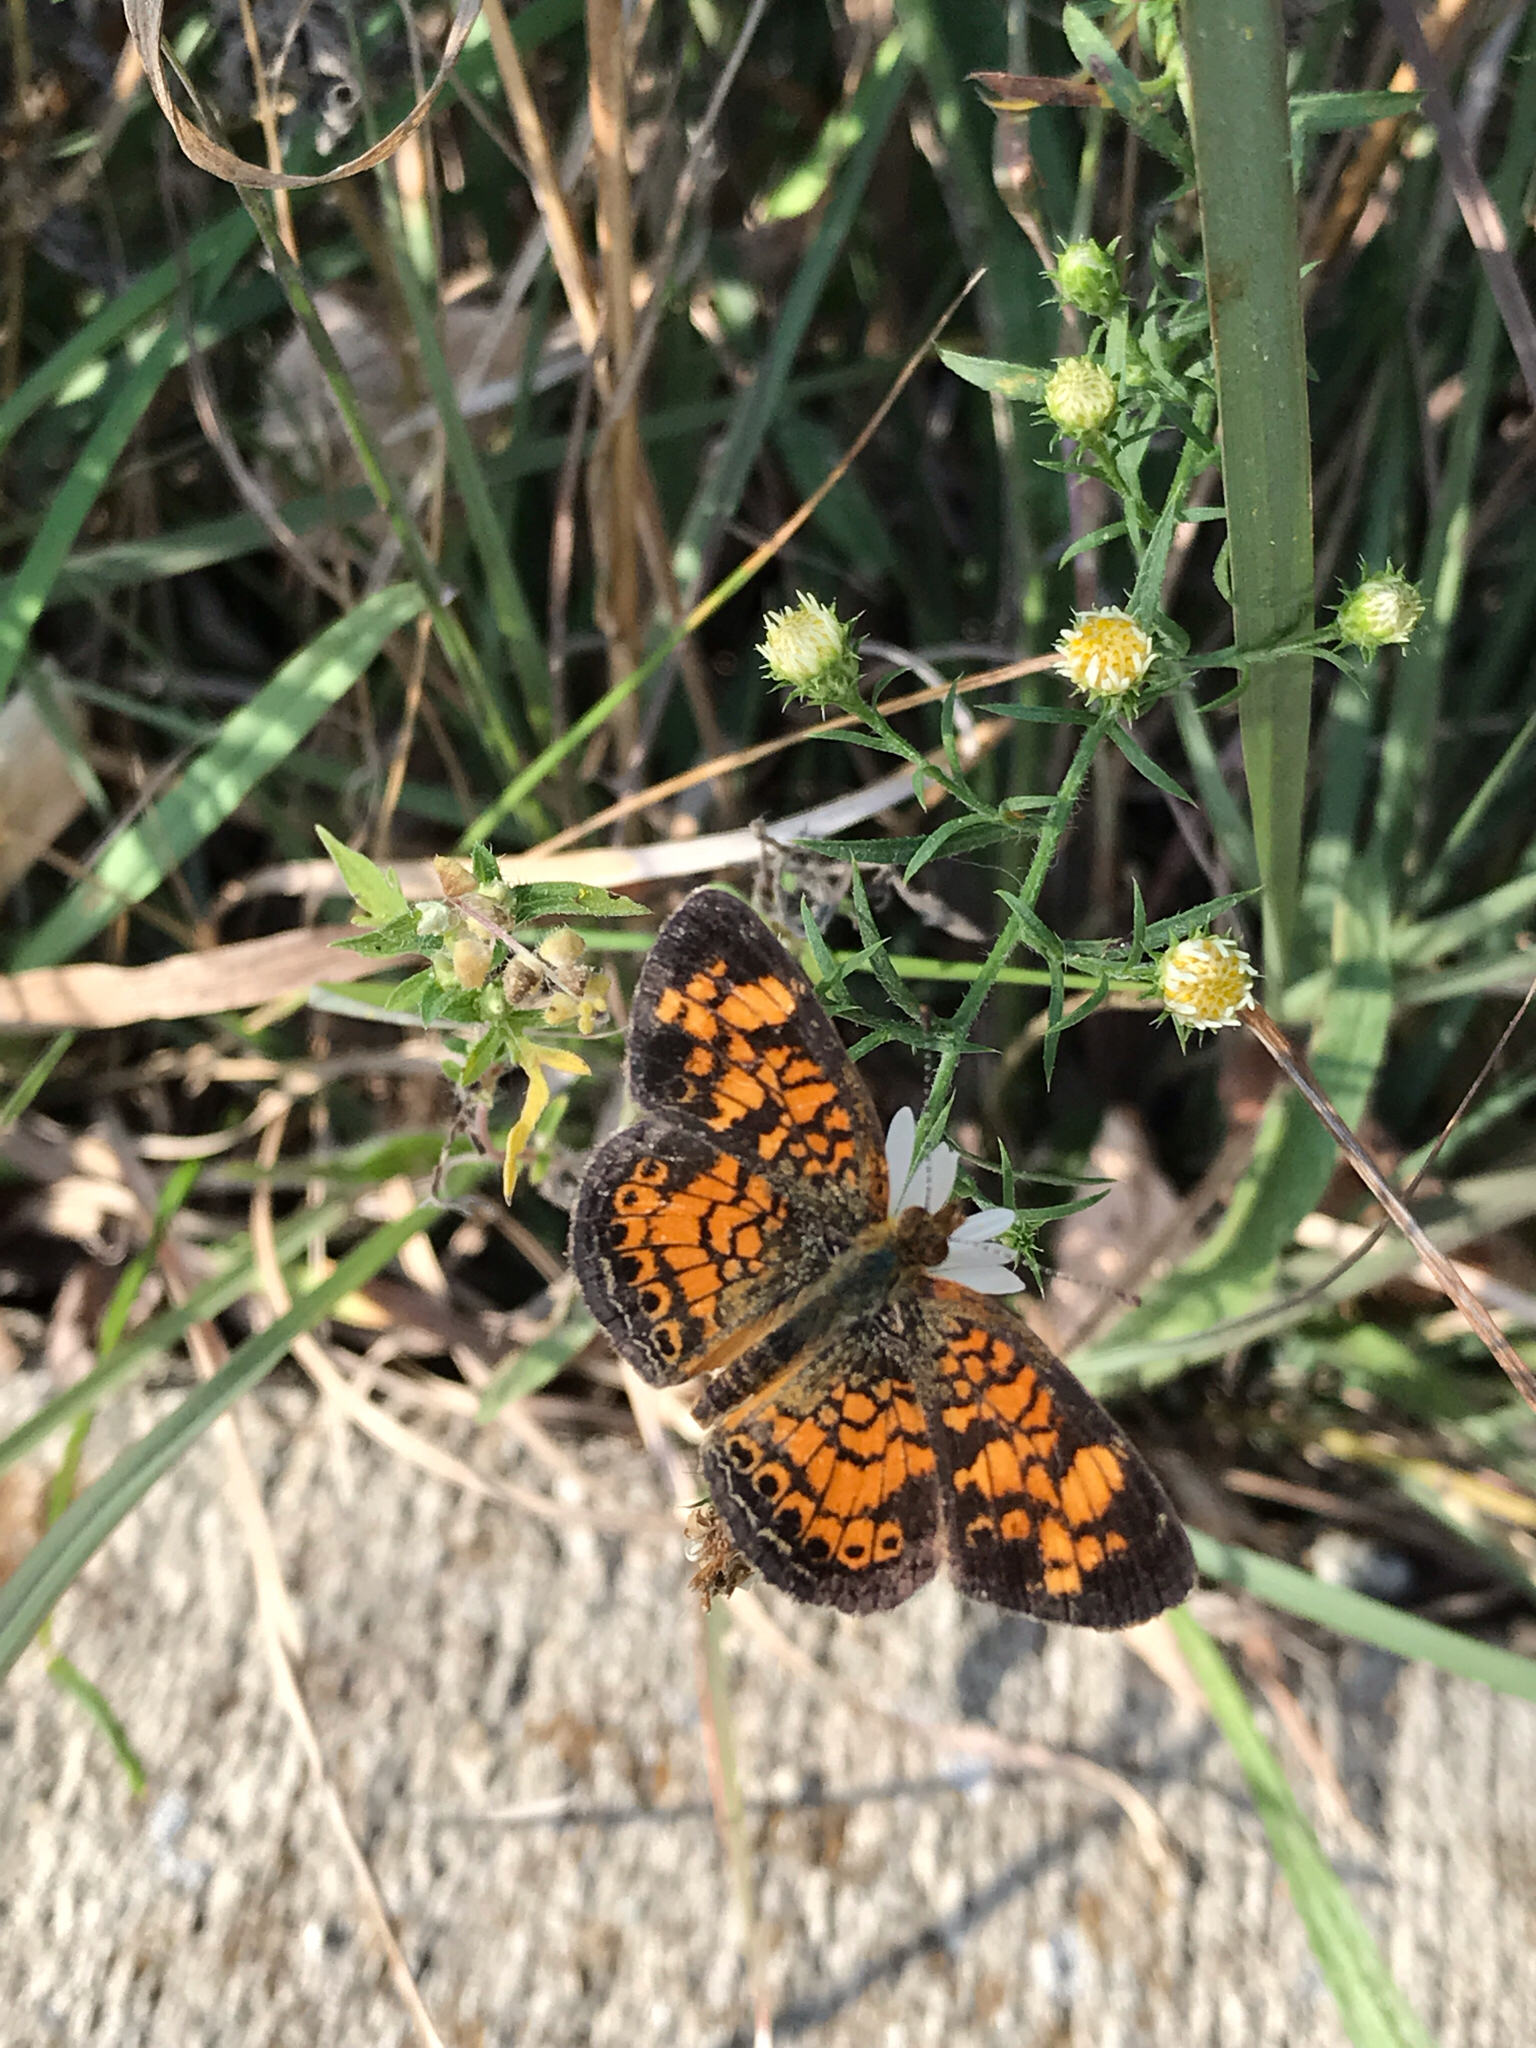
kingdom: Animalia
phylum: Arthropoda
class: Insecta
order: Lepidoptera
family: Nymphalidae
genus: Phyciodes
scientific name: Phyciodes tharos
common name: Pearl crescent
